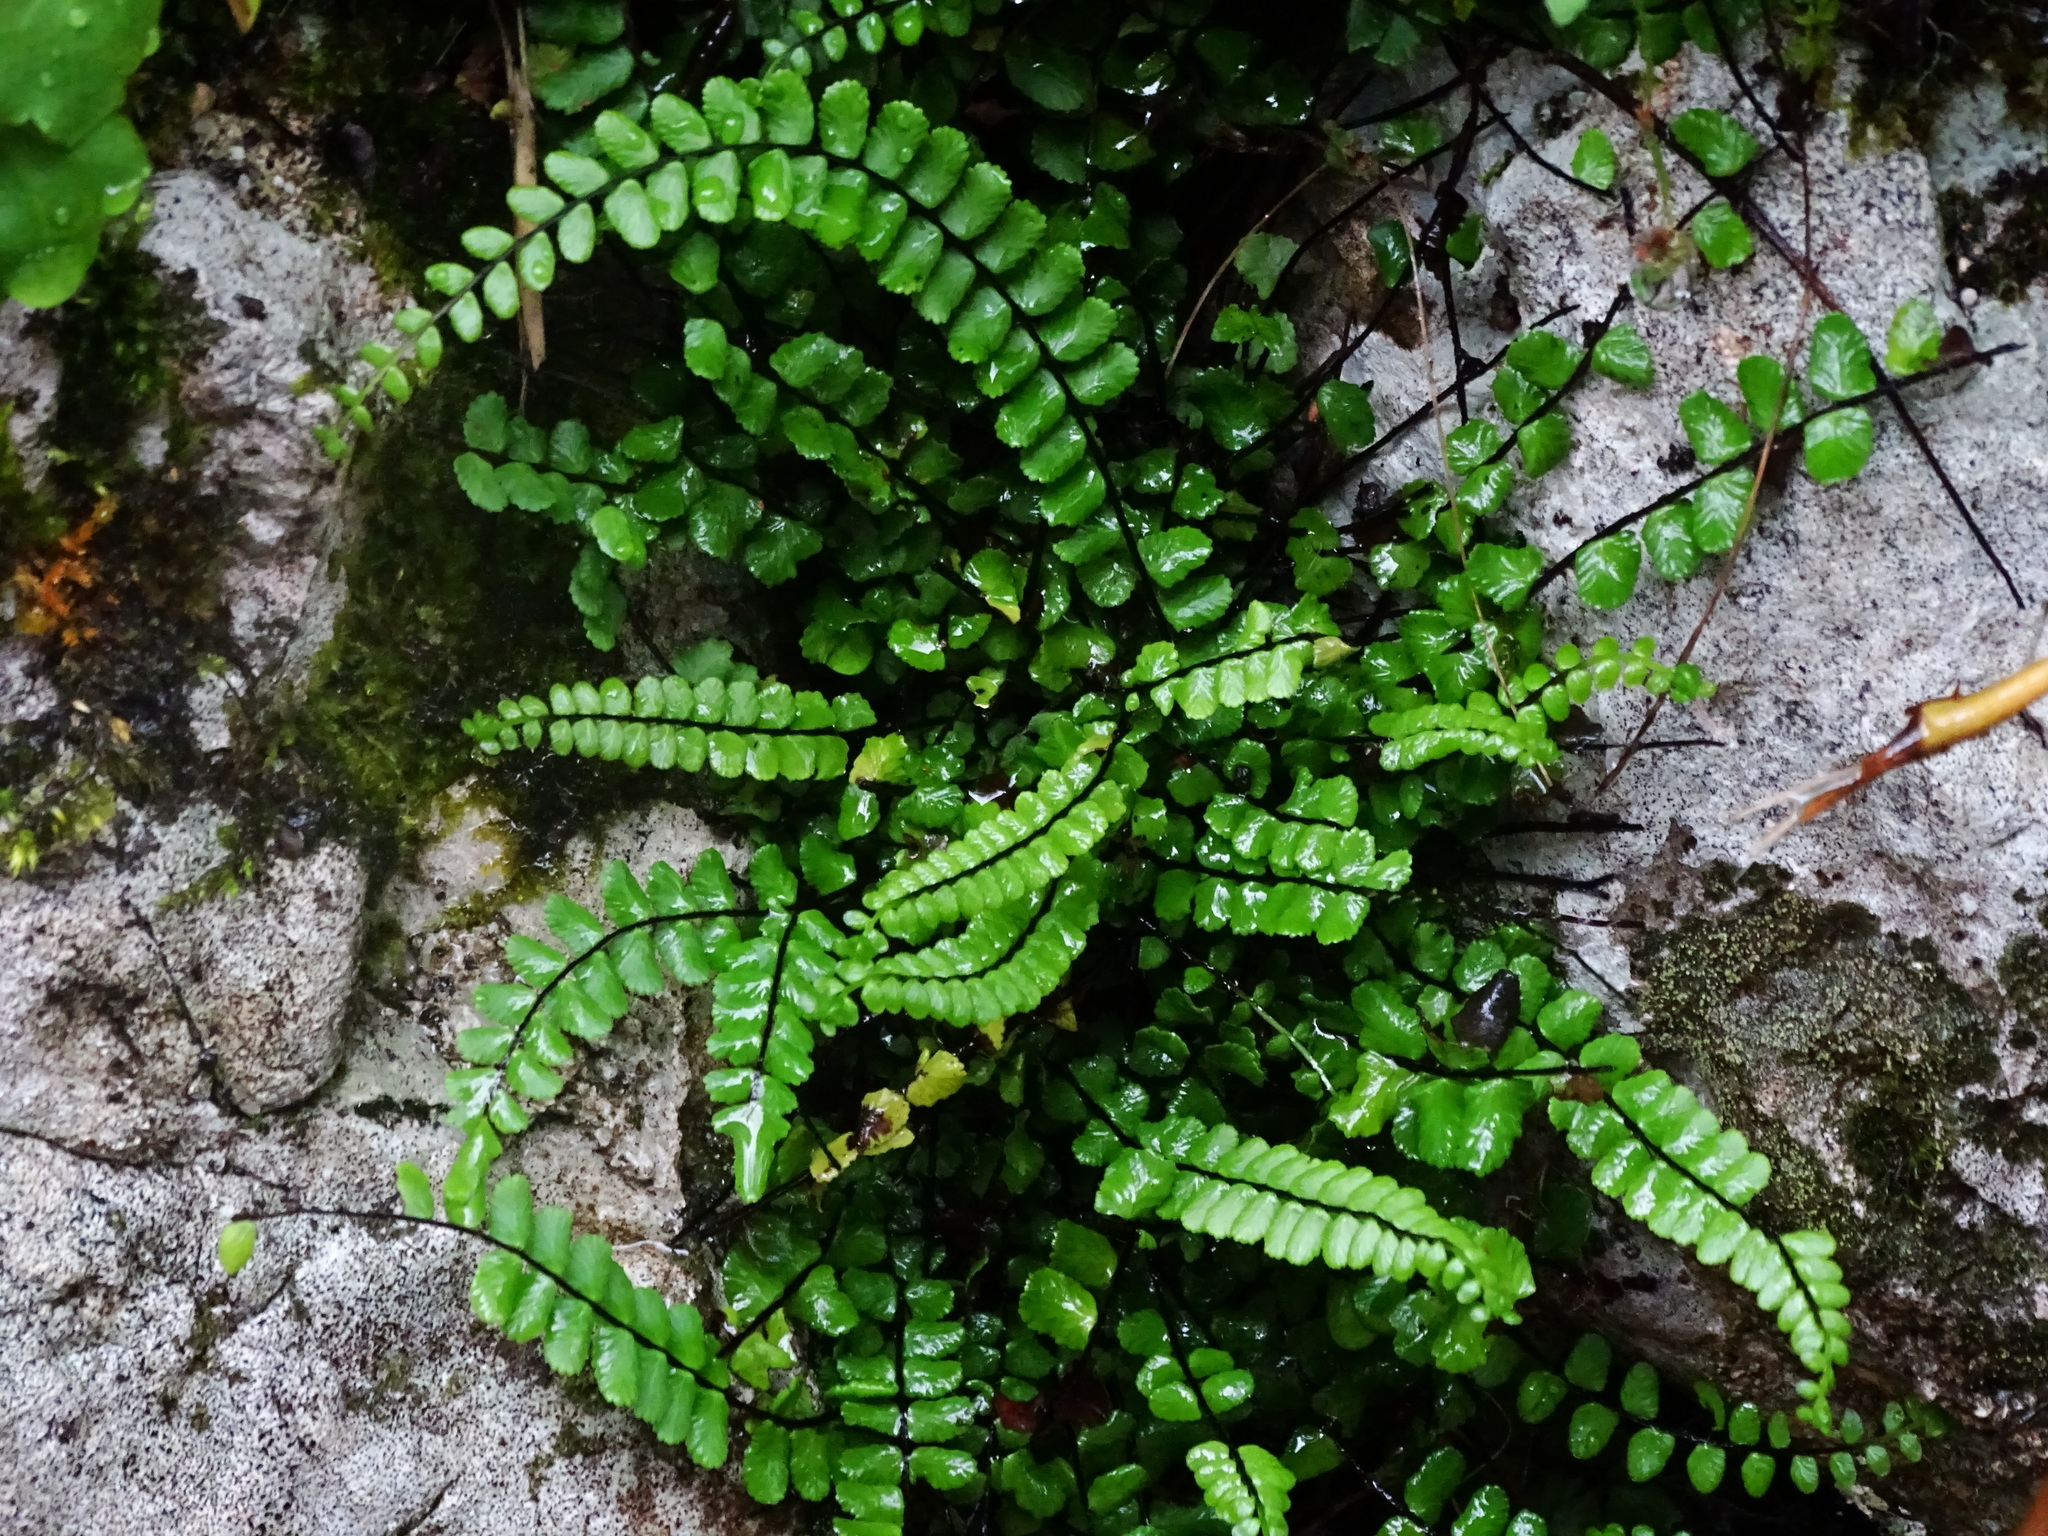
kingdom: Plantae
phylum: Tracheophyta
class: Polypodiopsida
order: Polypodiales
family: Aspleniaceae
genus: Asplenium
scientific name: Asplenium trichomanes
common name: Maidenhair spleenwort
